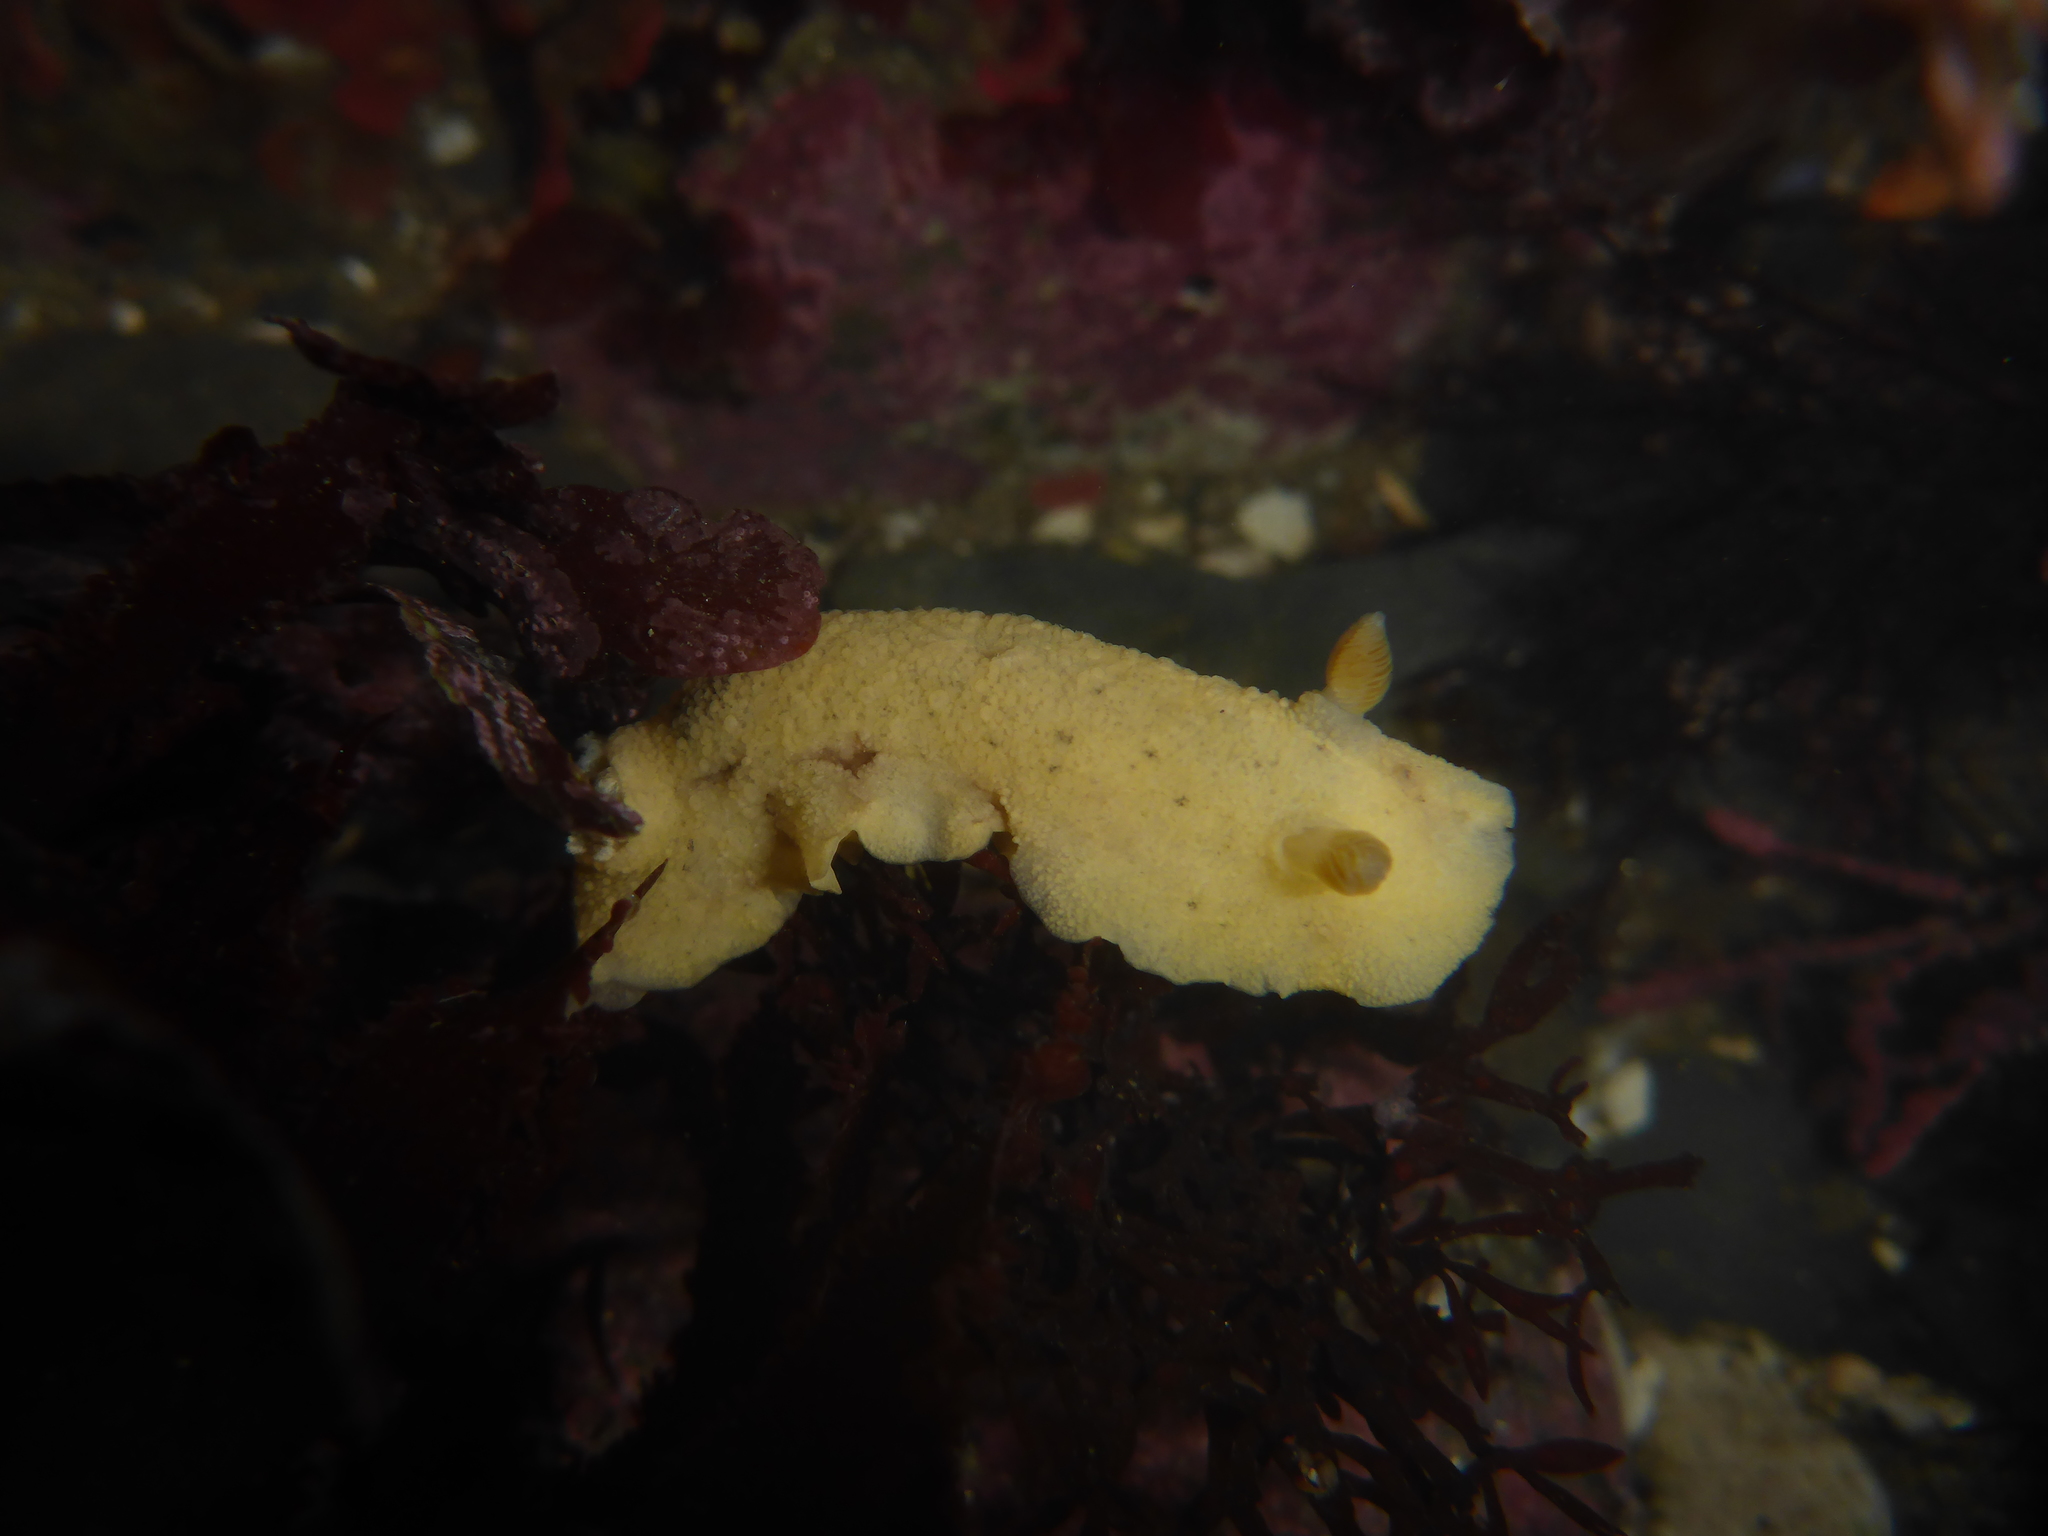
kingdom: Animalia
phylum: Mollusca
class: Gastropoda
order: Nudibranchia
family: Discodorididae
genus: Geitodoris
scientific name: Geitodoris heathi
